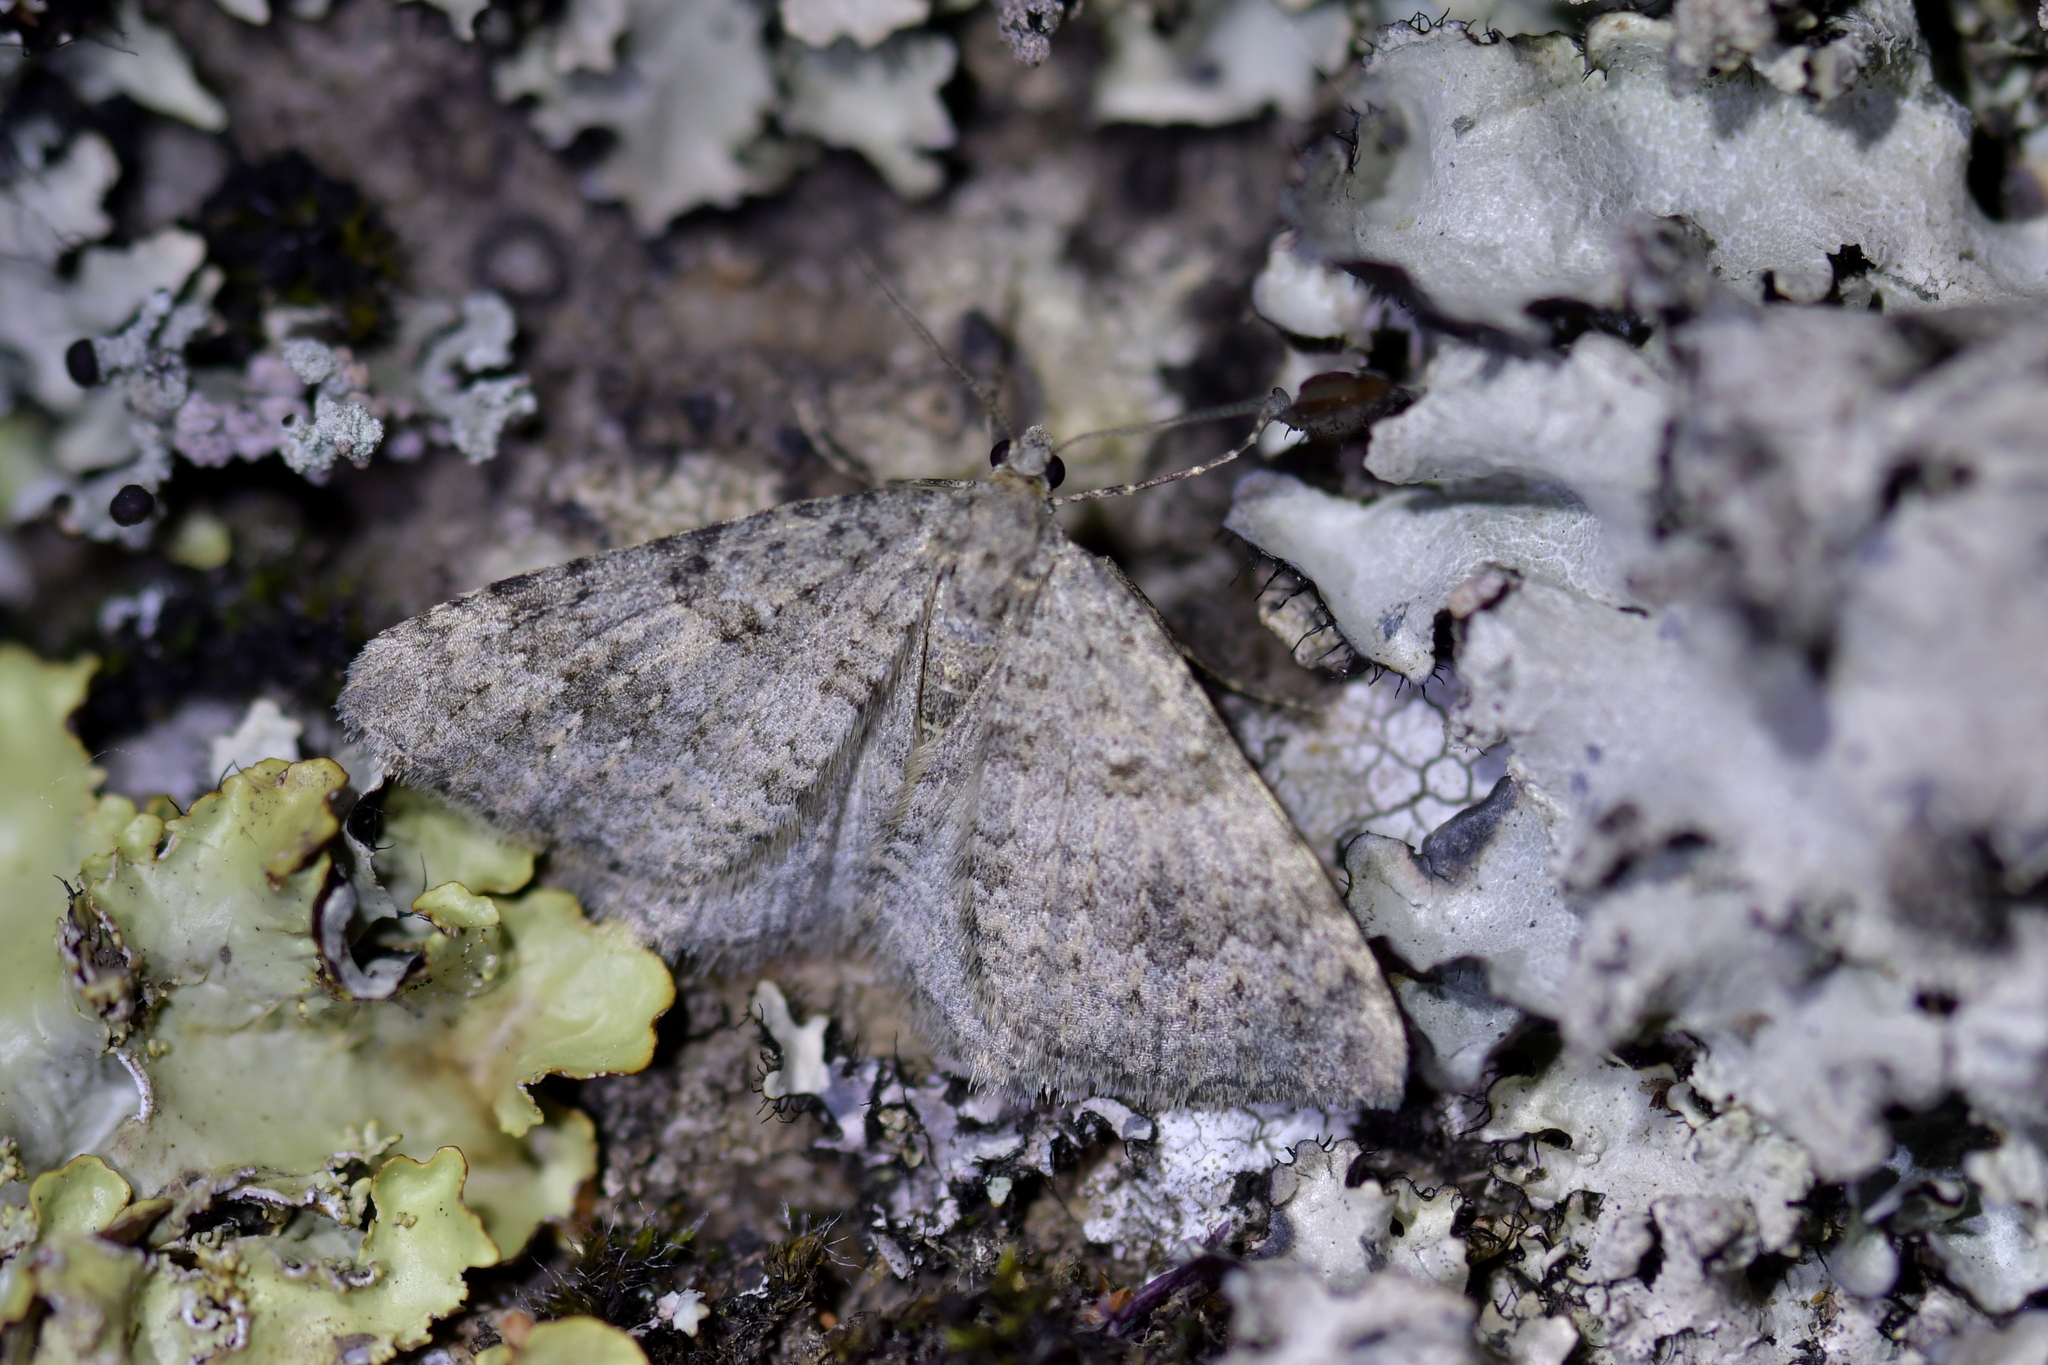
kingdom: Animalia
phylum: Arthropoda
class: Insecta
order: Lepidoptera
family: Geometridae
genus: Helastia
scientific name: Helastia corcularia
